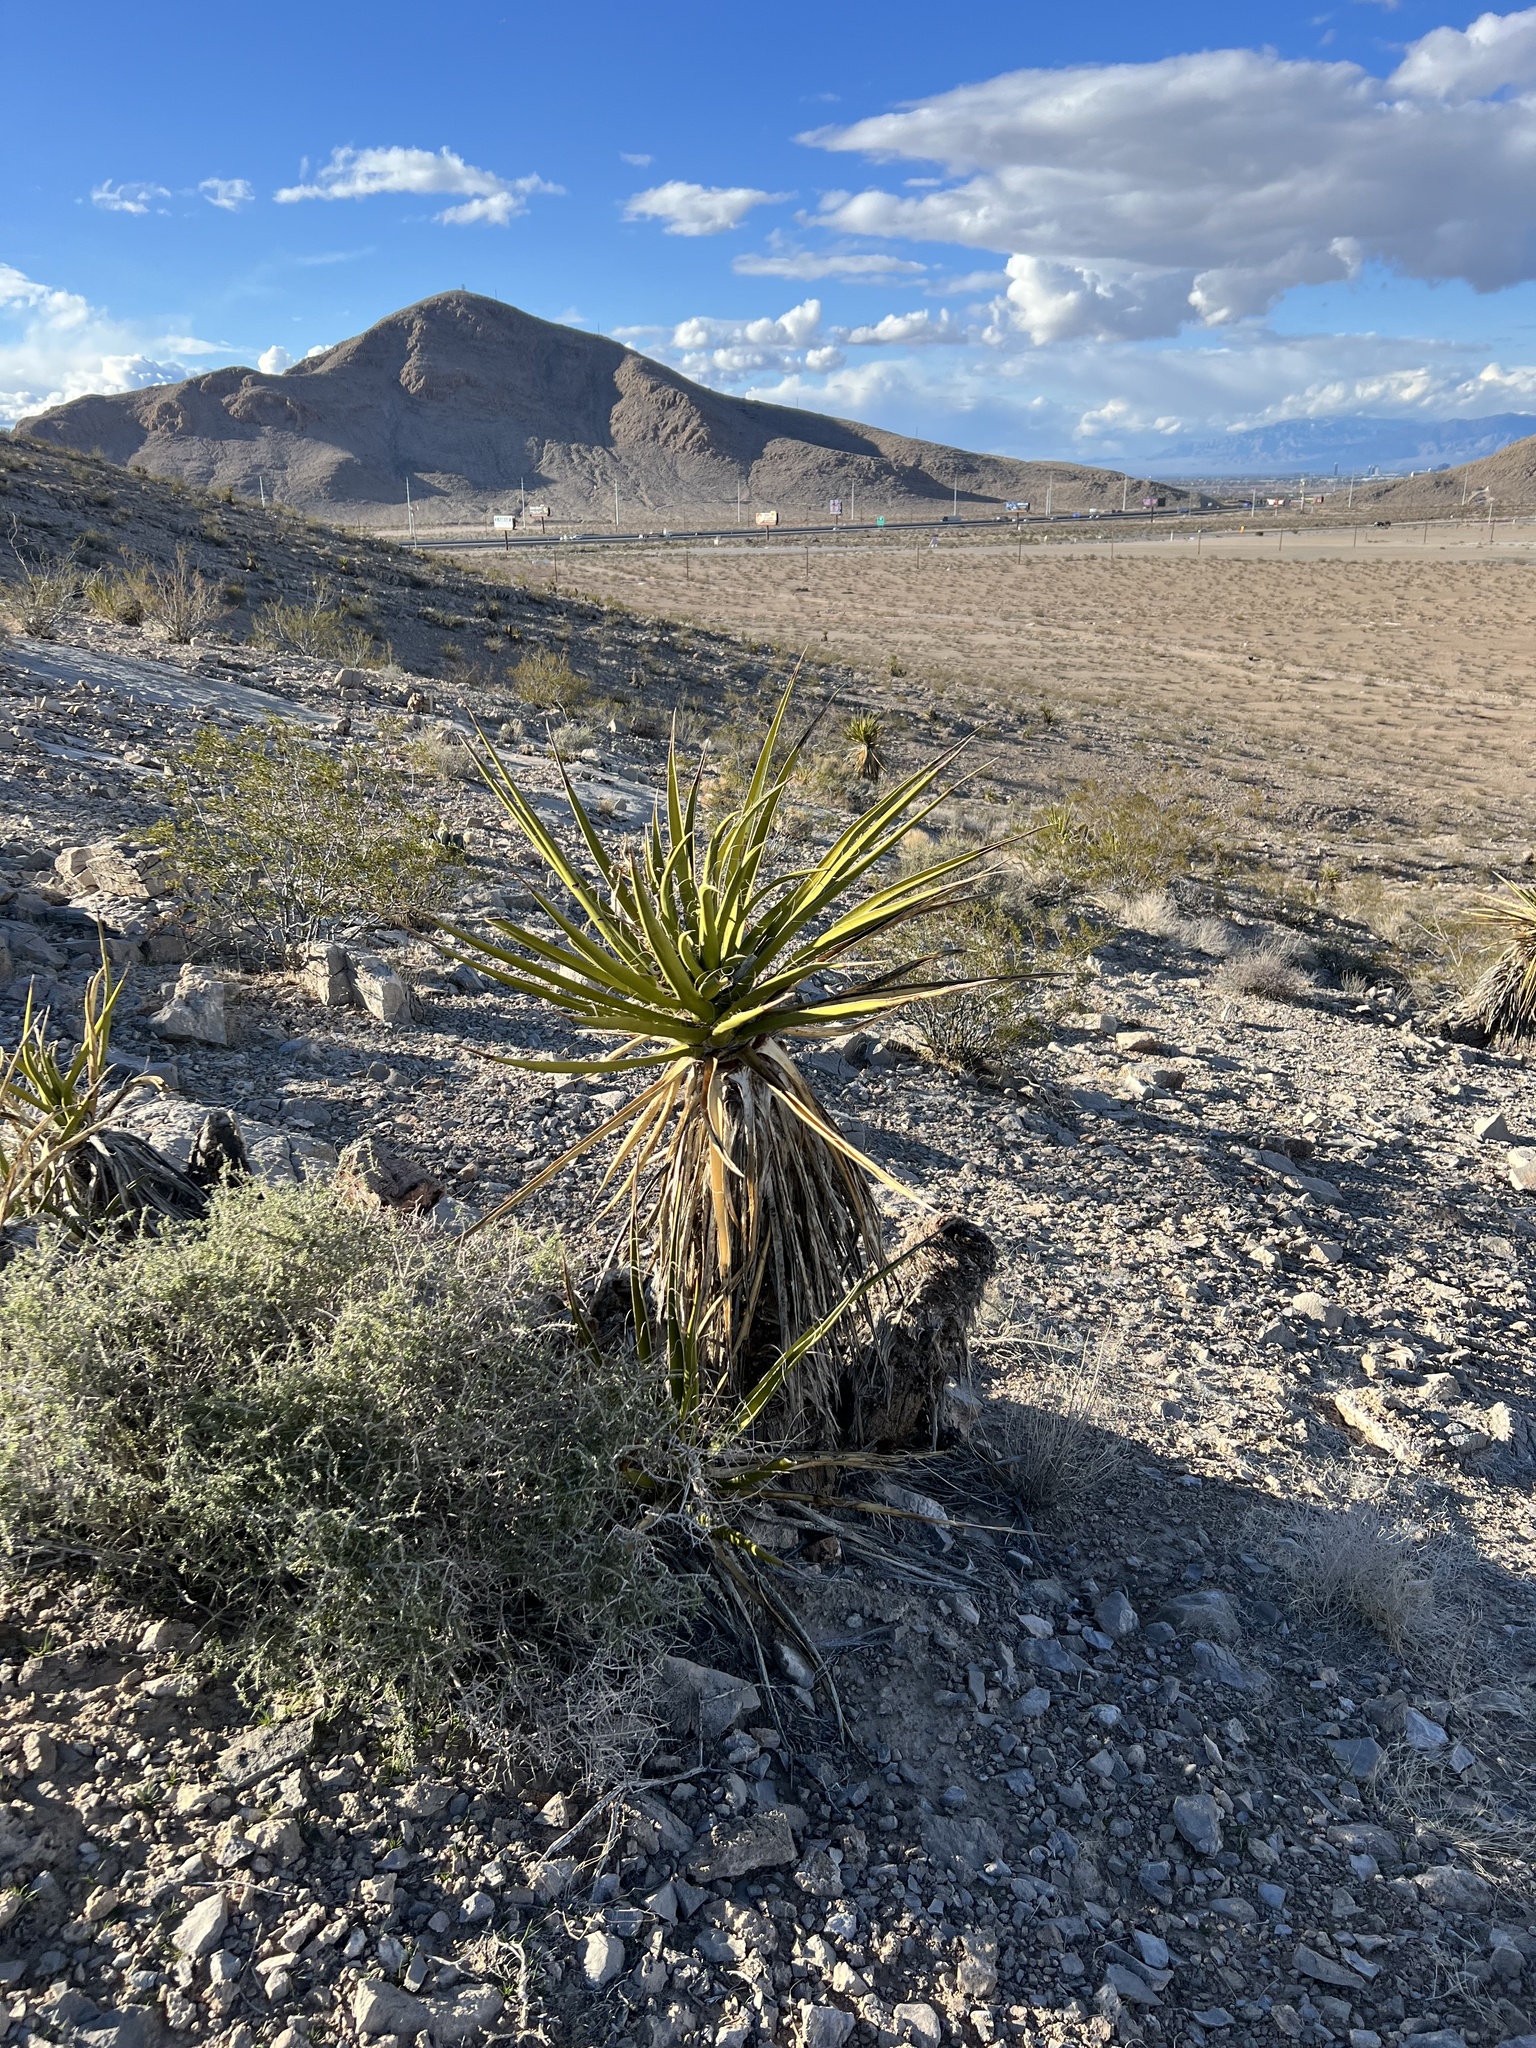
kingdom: Plantae
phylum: Tracheophyta
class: Liliopsida
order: Asparagales
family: Asparagaceae
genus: Yucca
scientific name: Yucca schidigera
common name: Mojave yucca
